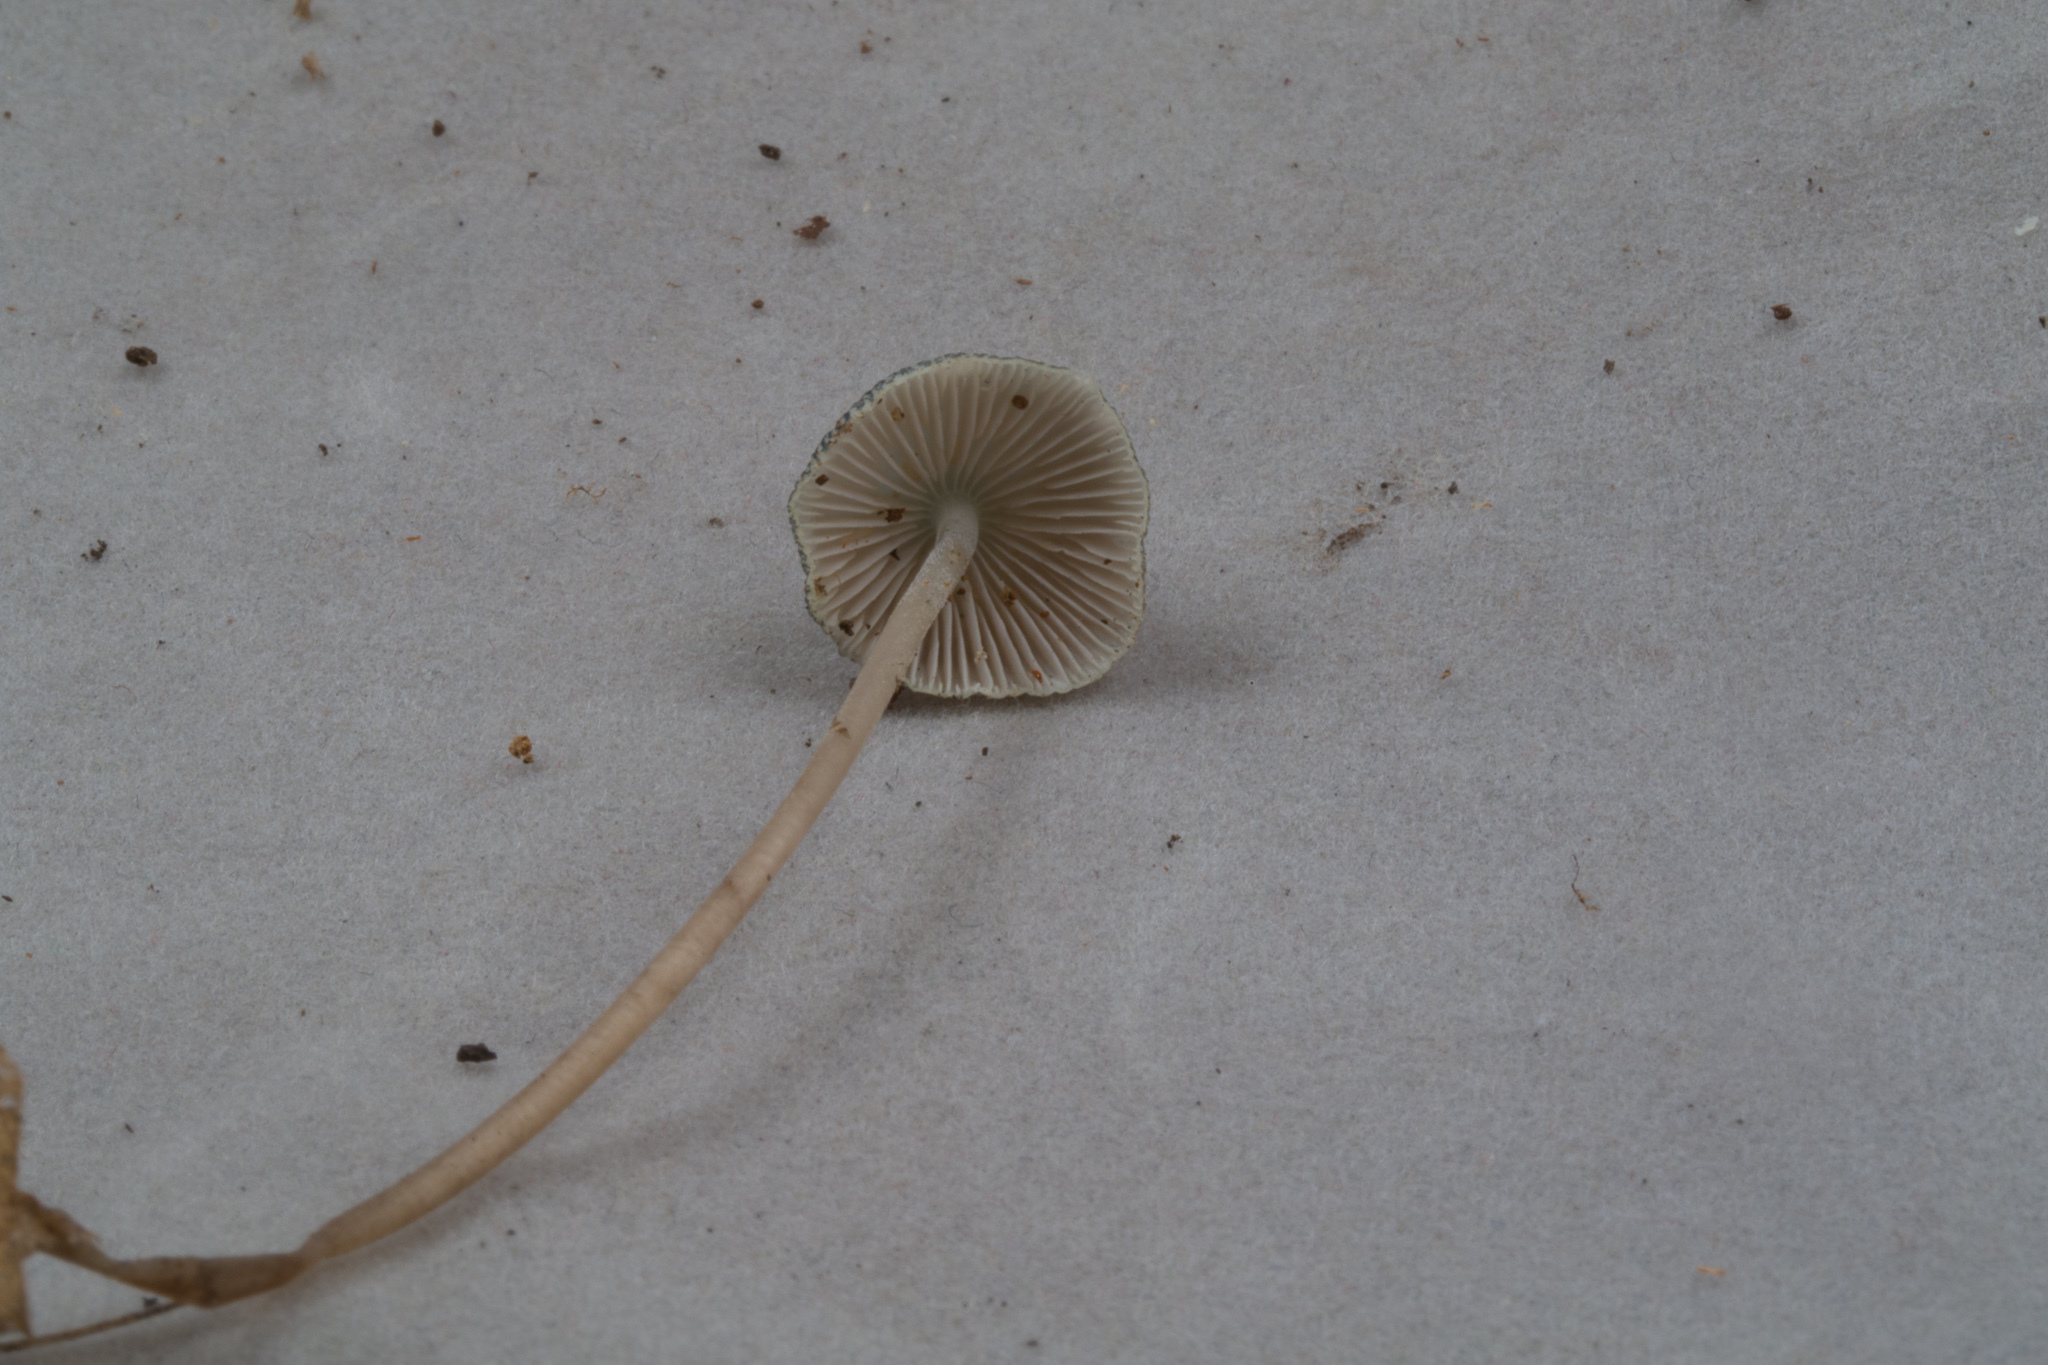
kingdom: Fungi
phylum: Basidiomycota
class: Agaricomycetes
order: Agaricales
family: Mycenaceae
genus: Mycena
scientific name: Mycena subcaerulea
